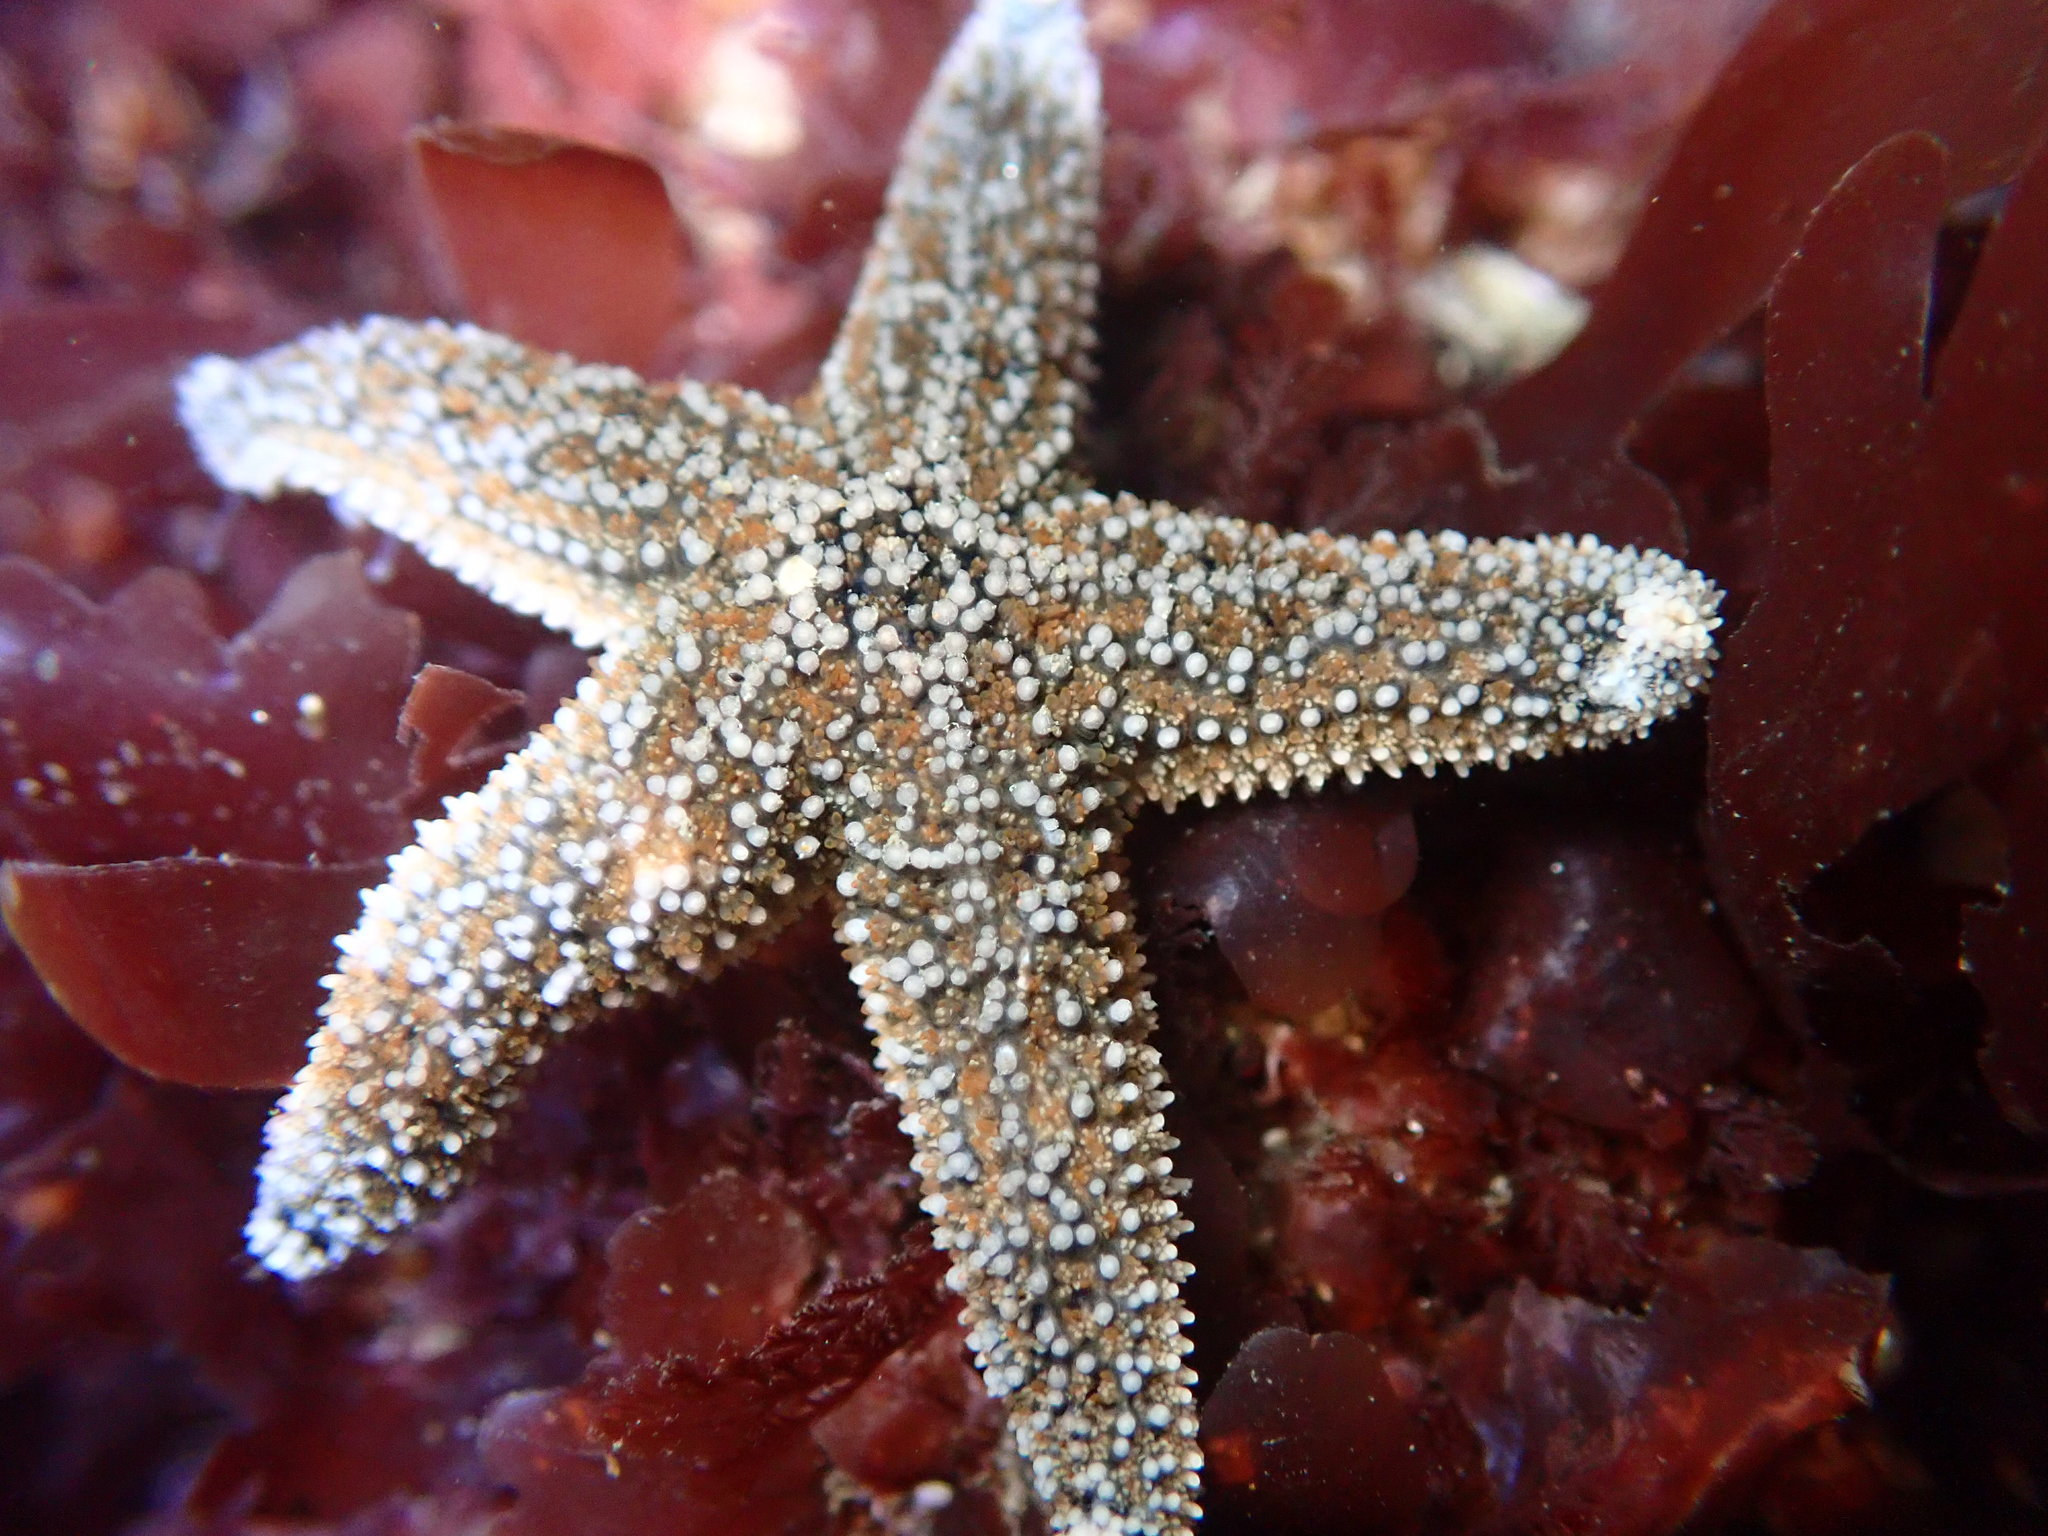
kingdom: Animalia
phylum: Echinodermata
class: Asteroidea
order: Forcipulatida
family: Asteriidae
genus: Pisaster
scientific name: Pisaster ochraceus
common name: Ochre stars
